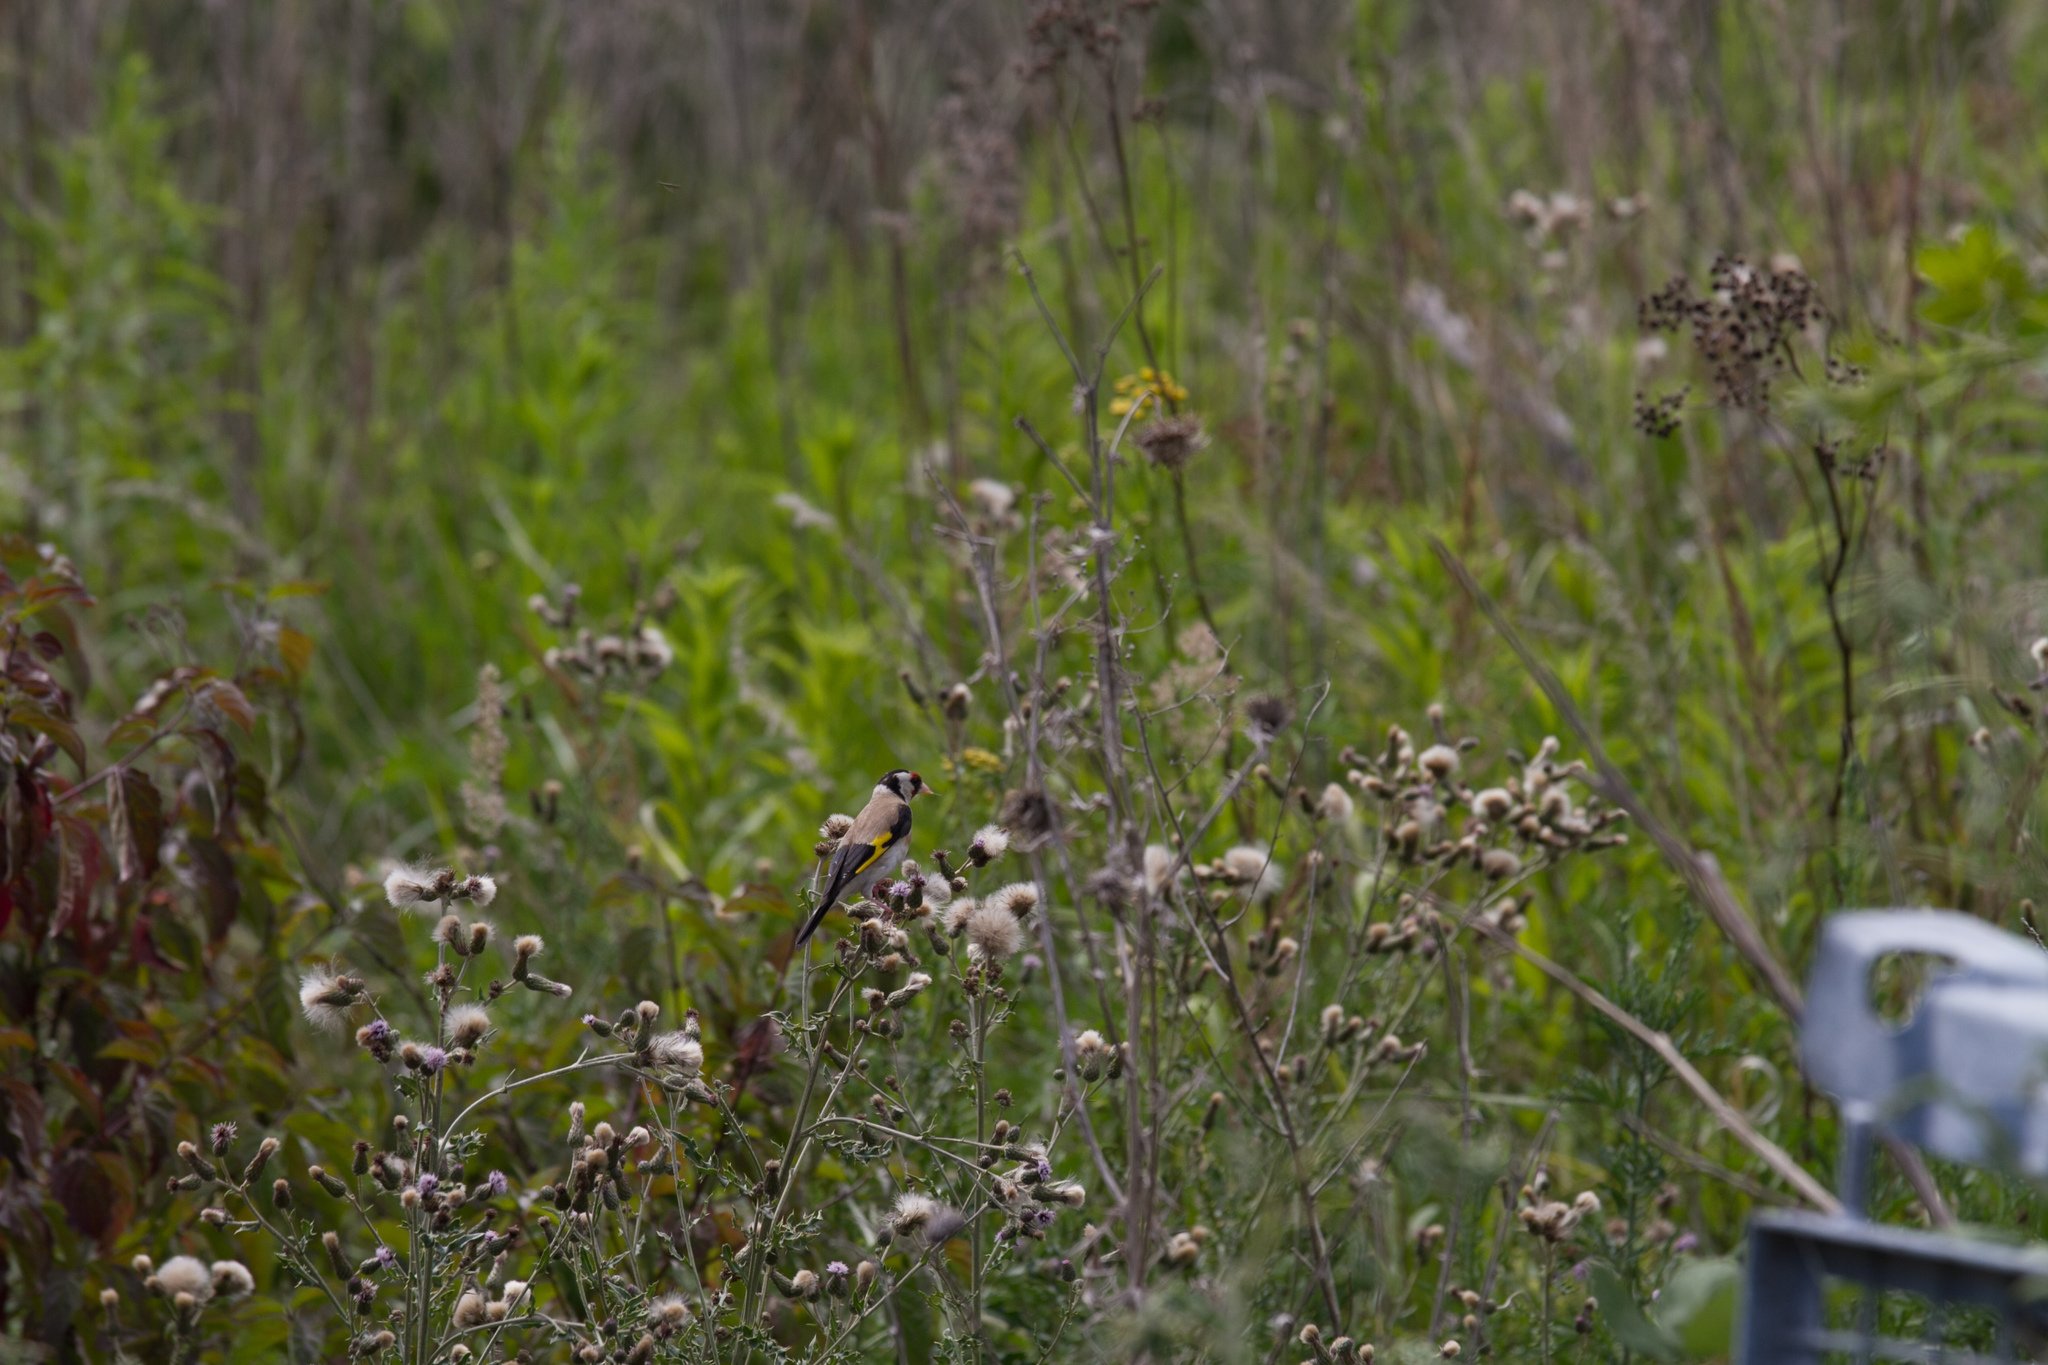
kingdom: Animalia
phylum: Chordata
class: Aves
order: Passeriformes
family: Fringillidae
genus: Carduelis
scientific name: Carduelis carduelis
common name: European goldfinch
